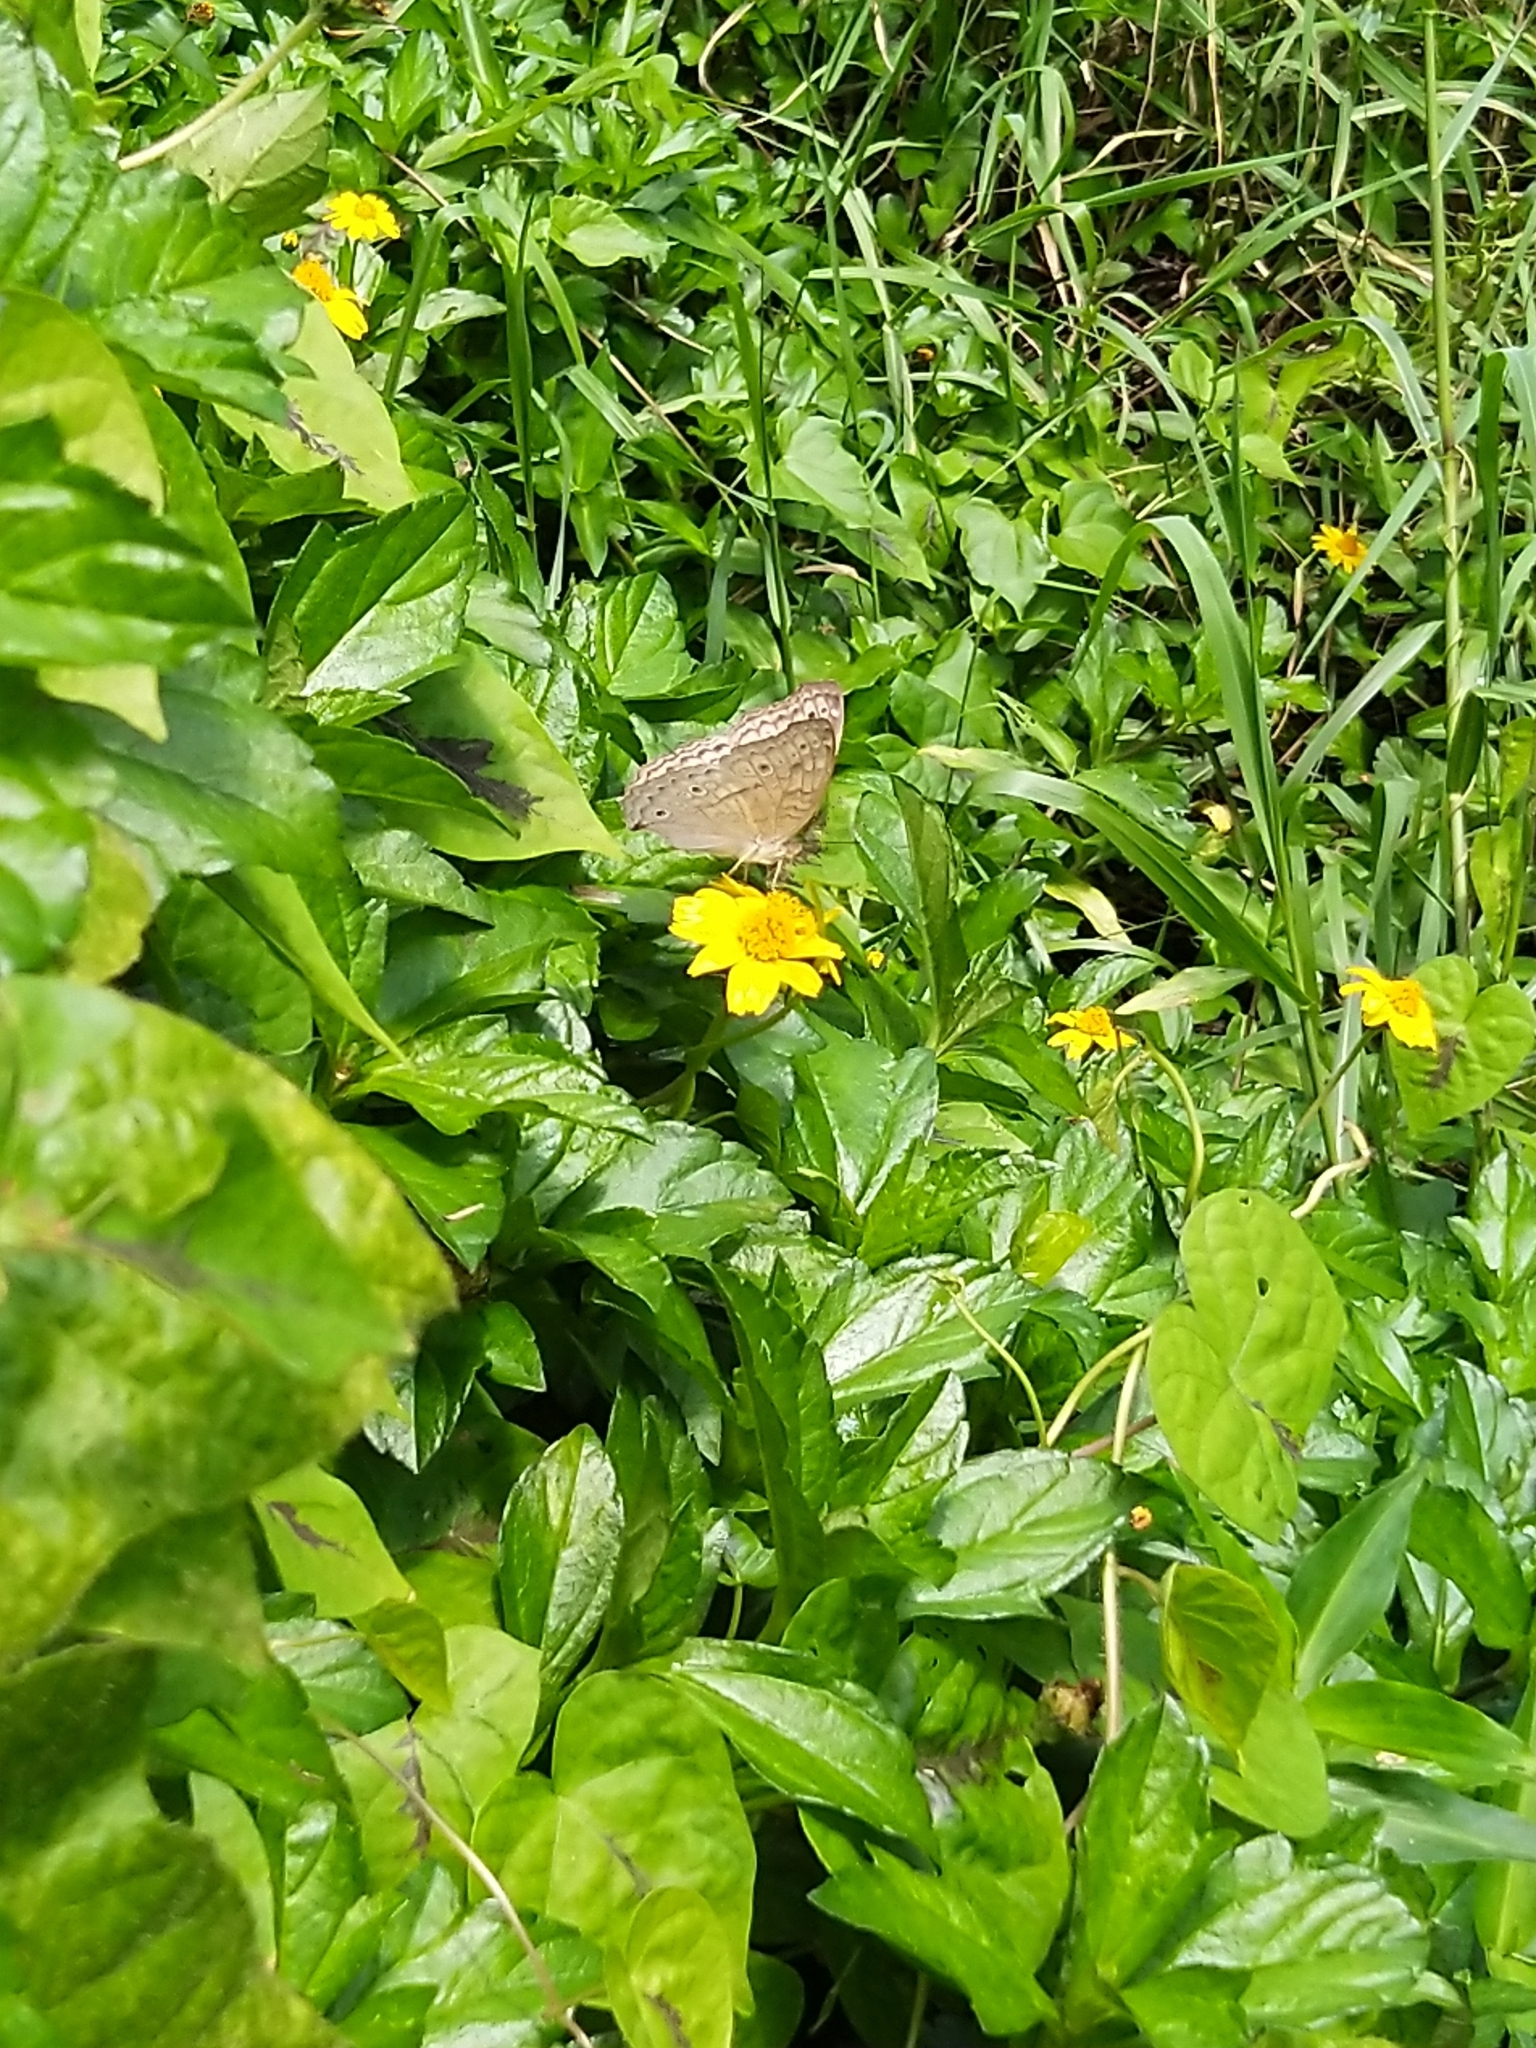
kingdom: Animalia
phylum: Arthropoda
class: Insecta
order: Lepidoptera
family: Nymphalidae
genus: Junonia
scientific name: Junonia atlites
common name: Grey pansy
